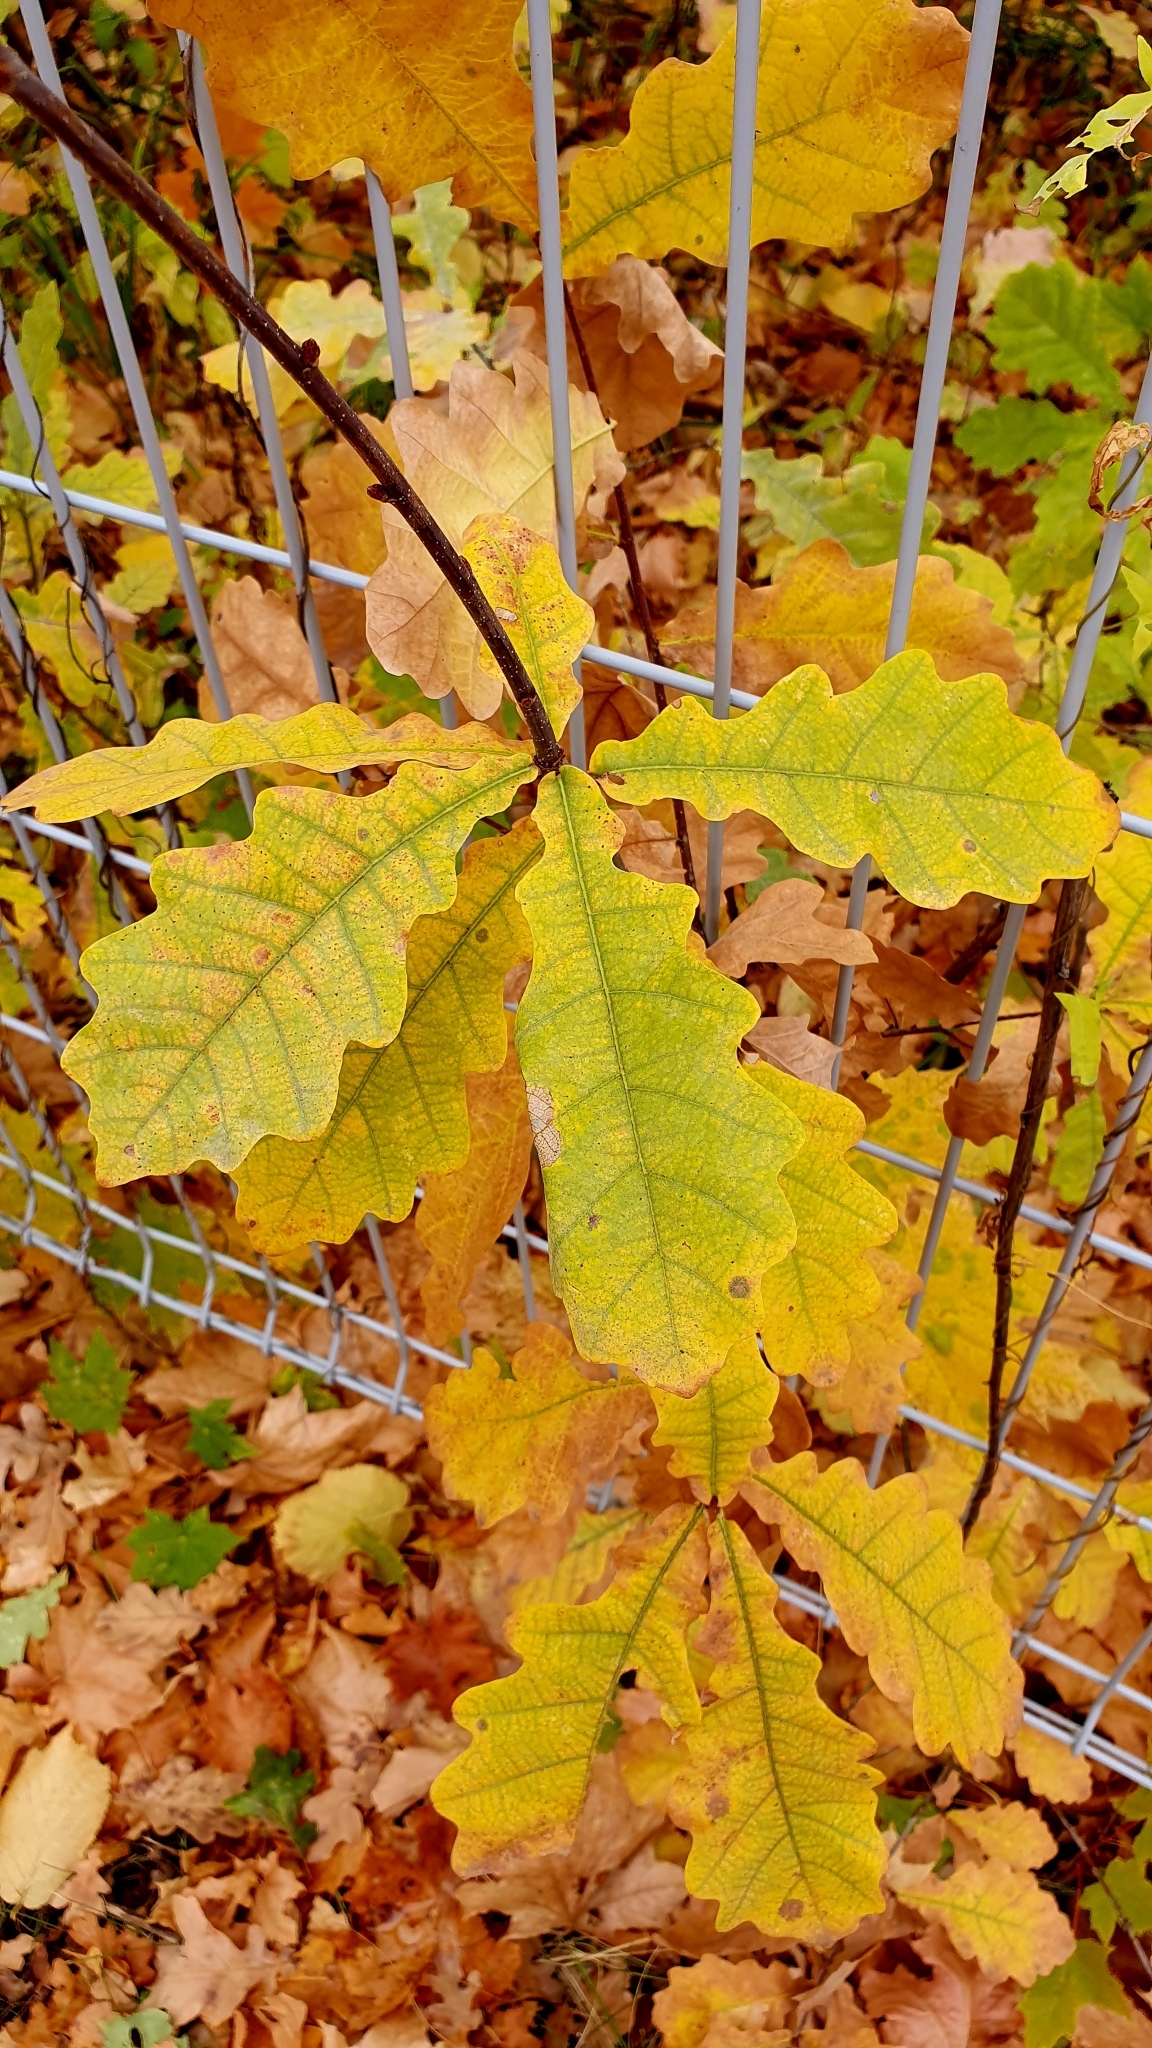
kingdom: Plantae
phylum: Tracheophyta
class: Magnoliopsida
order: Fagales
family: Fagaceae
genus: Quercus
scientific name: Quercus robur
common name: Pedunculate oak
